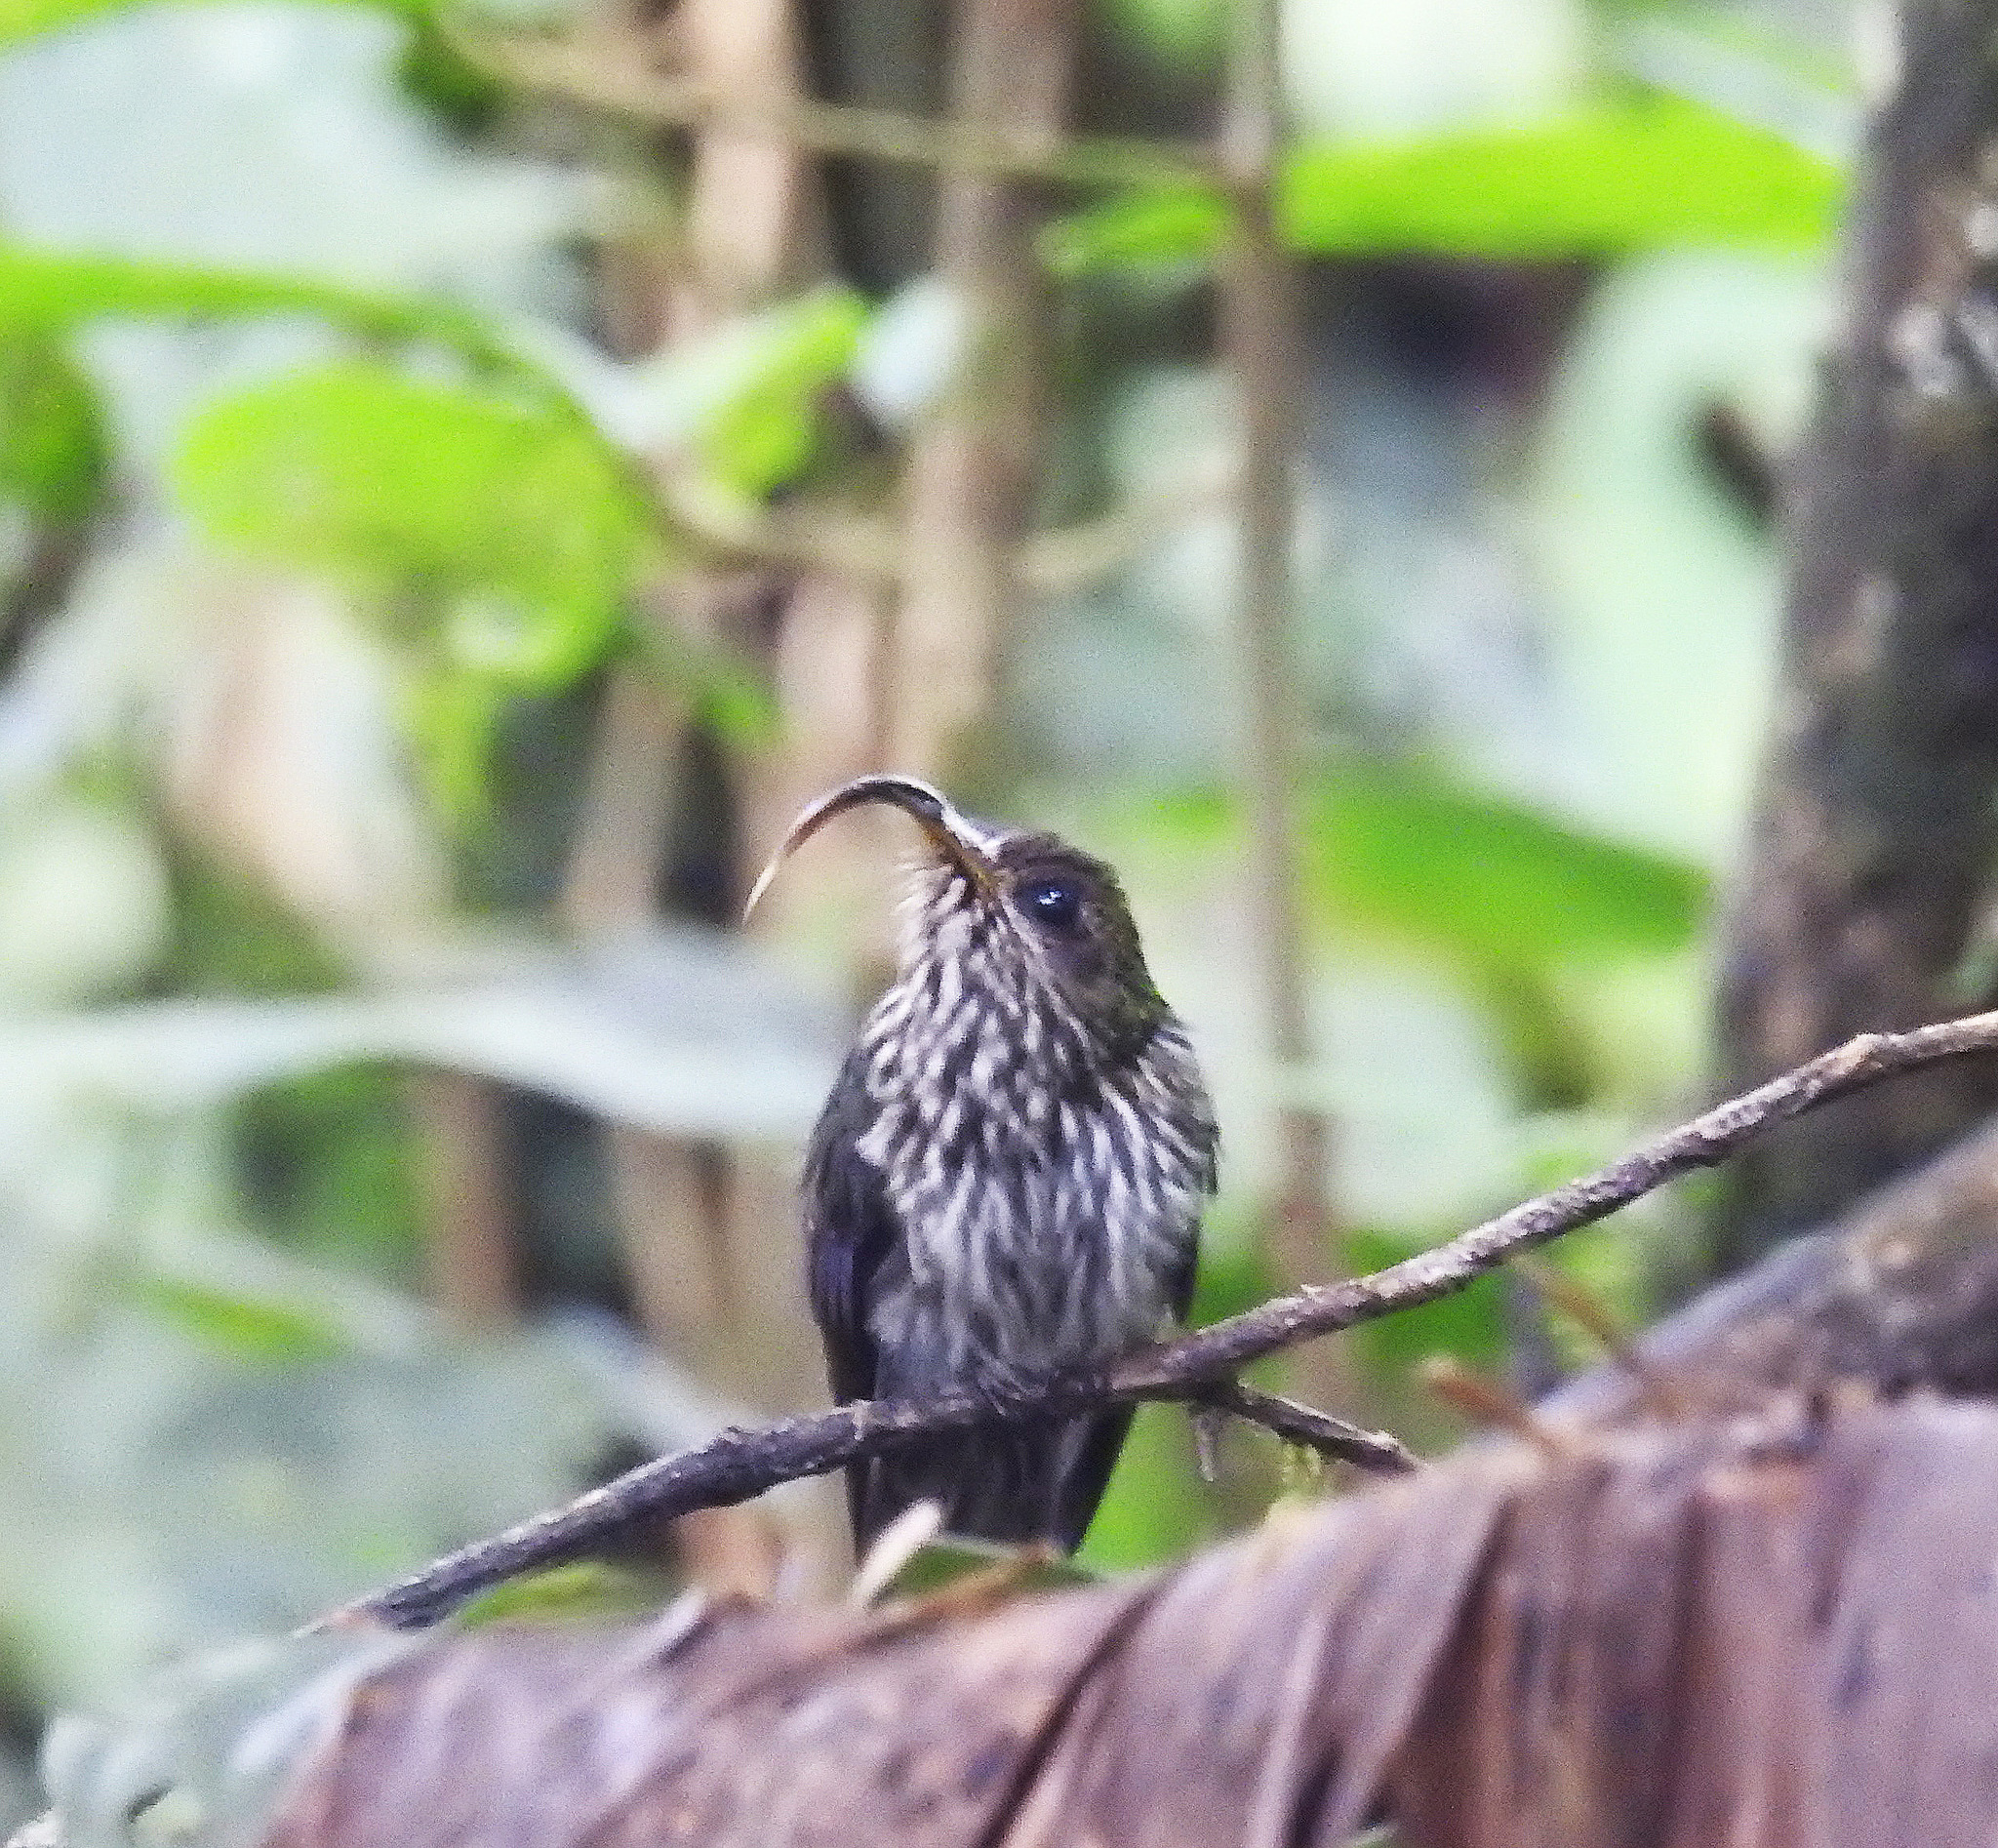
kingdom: Animalia
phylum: Chordata
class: Aves
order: Apodiformes
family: Trochilidae
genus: Eutoxeres
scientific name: Eutoxeres aquila
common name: White-tipped sicklebill
